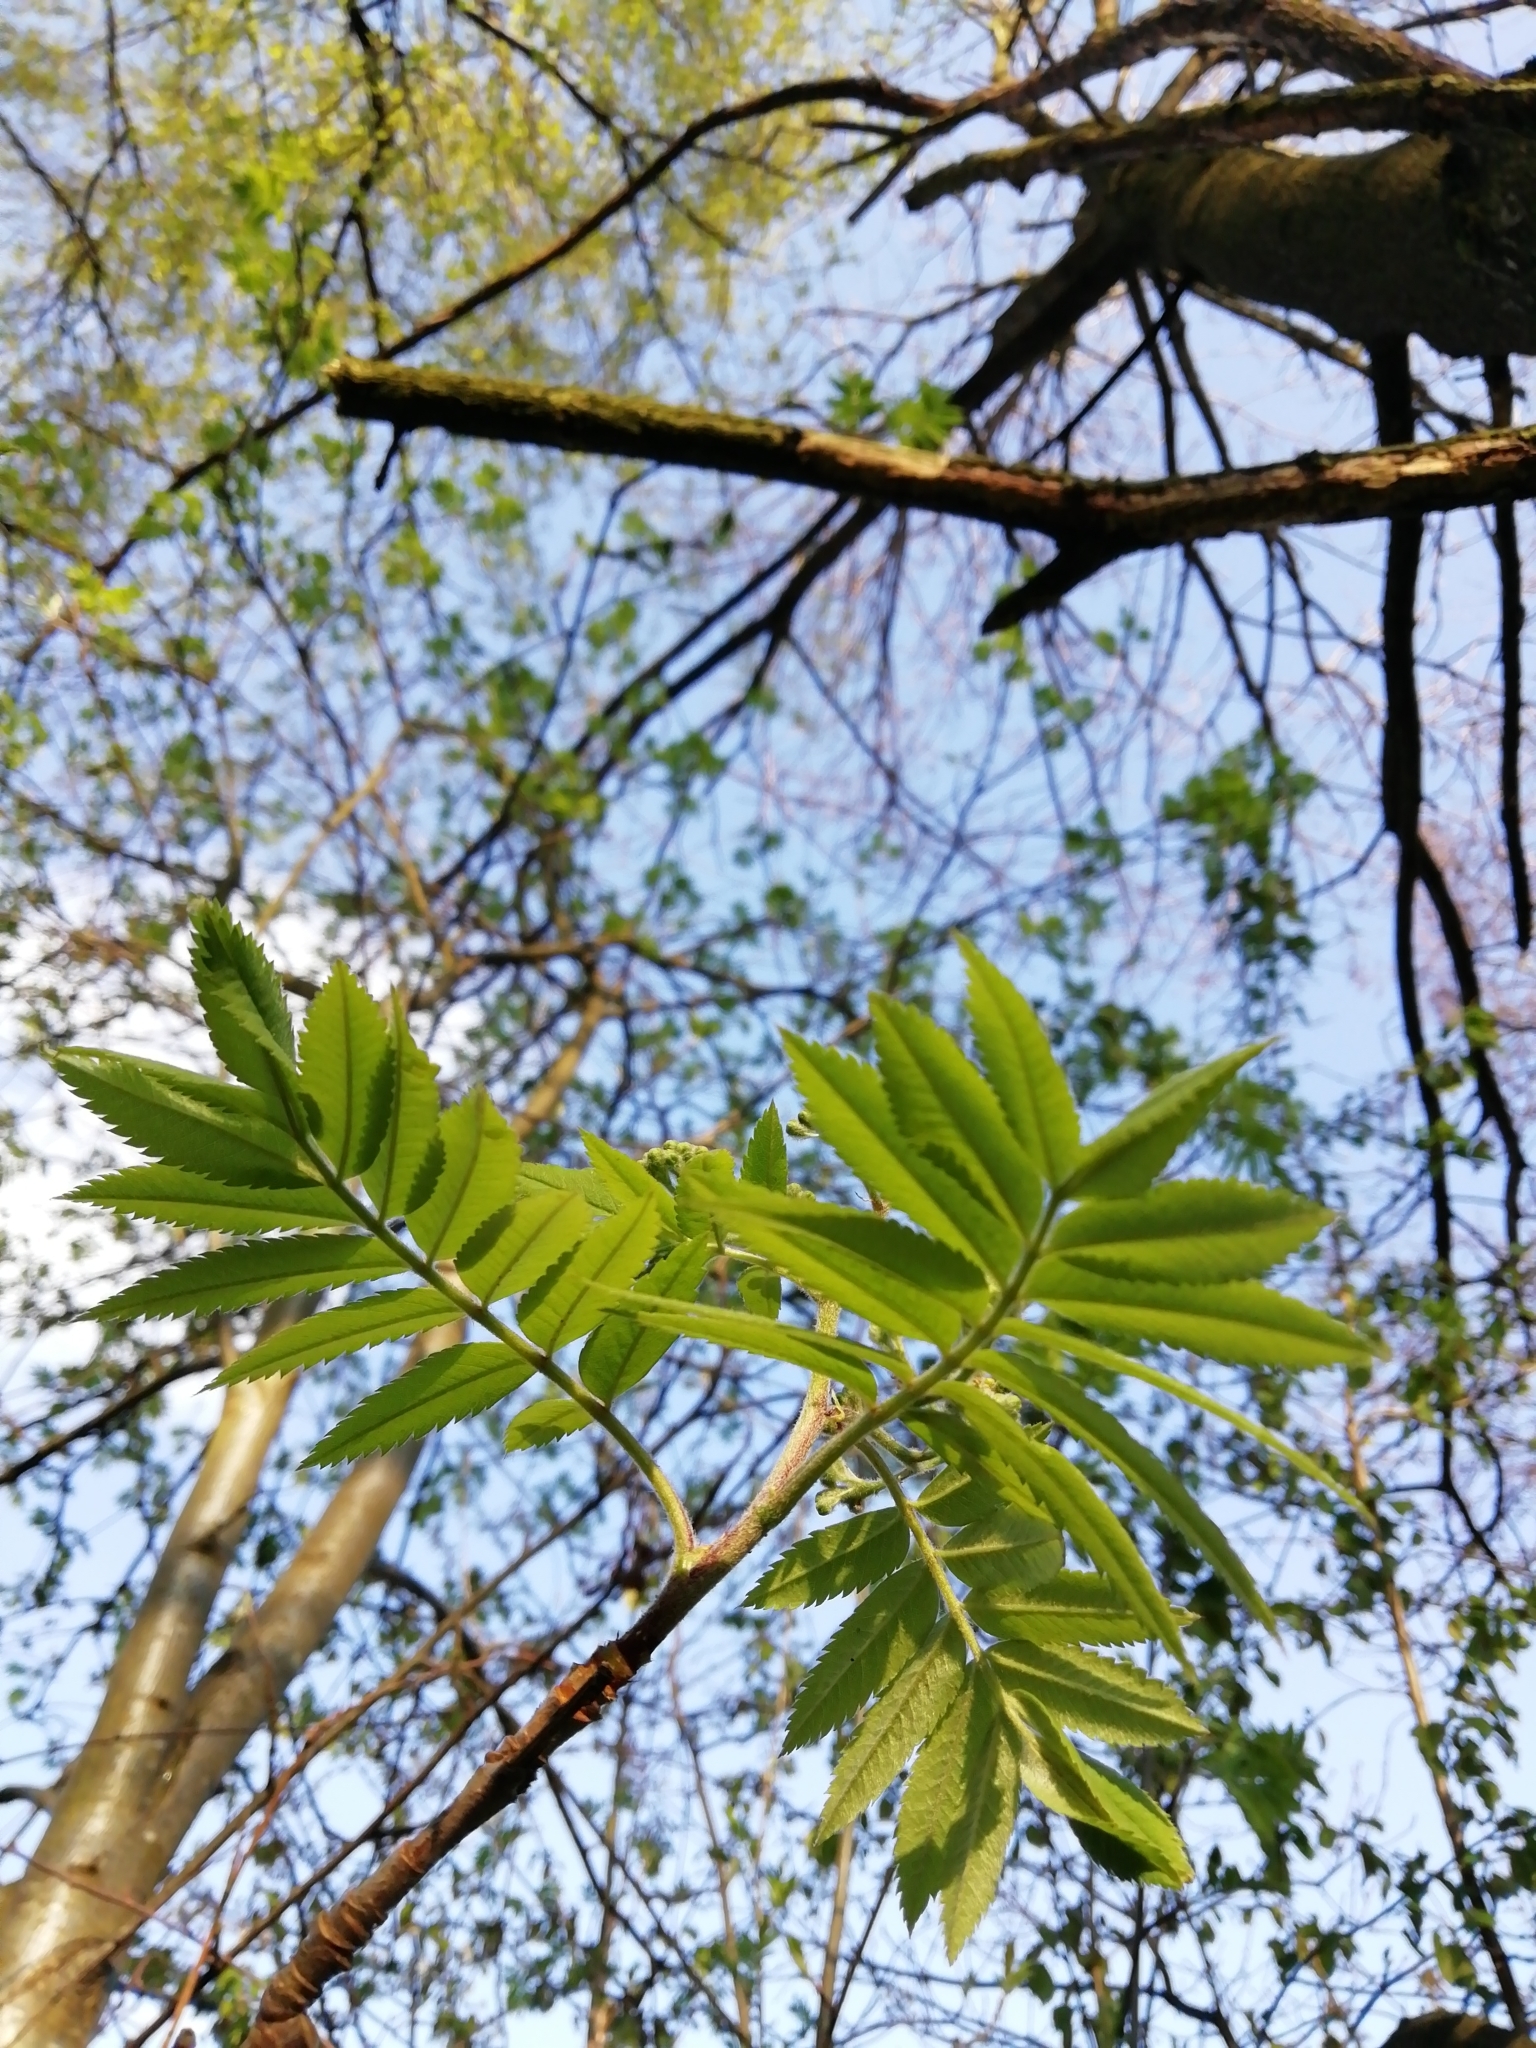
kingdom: Plantae
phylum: Tracheophyta
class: Magnoliopsida
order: Rosales
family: Rosaceae
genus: Sorbus
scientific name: Sorbus aucuparia
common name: Rowan
